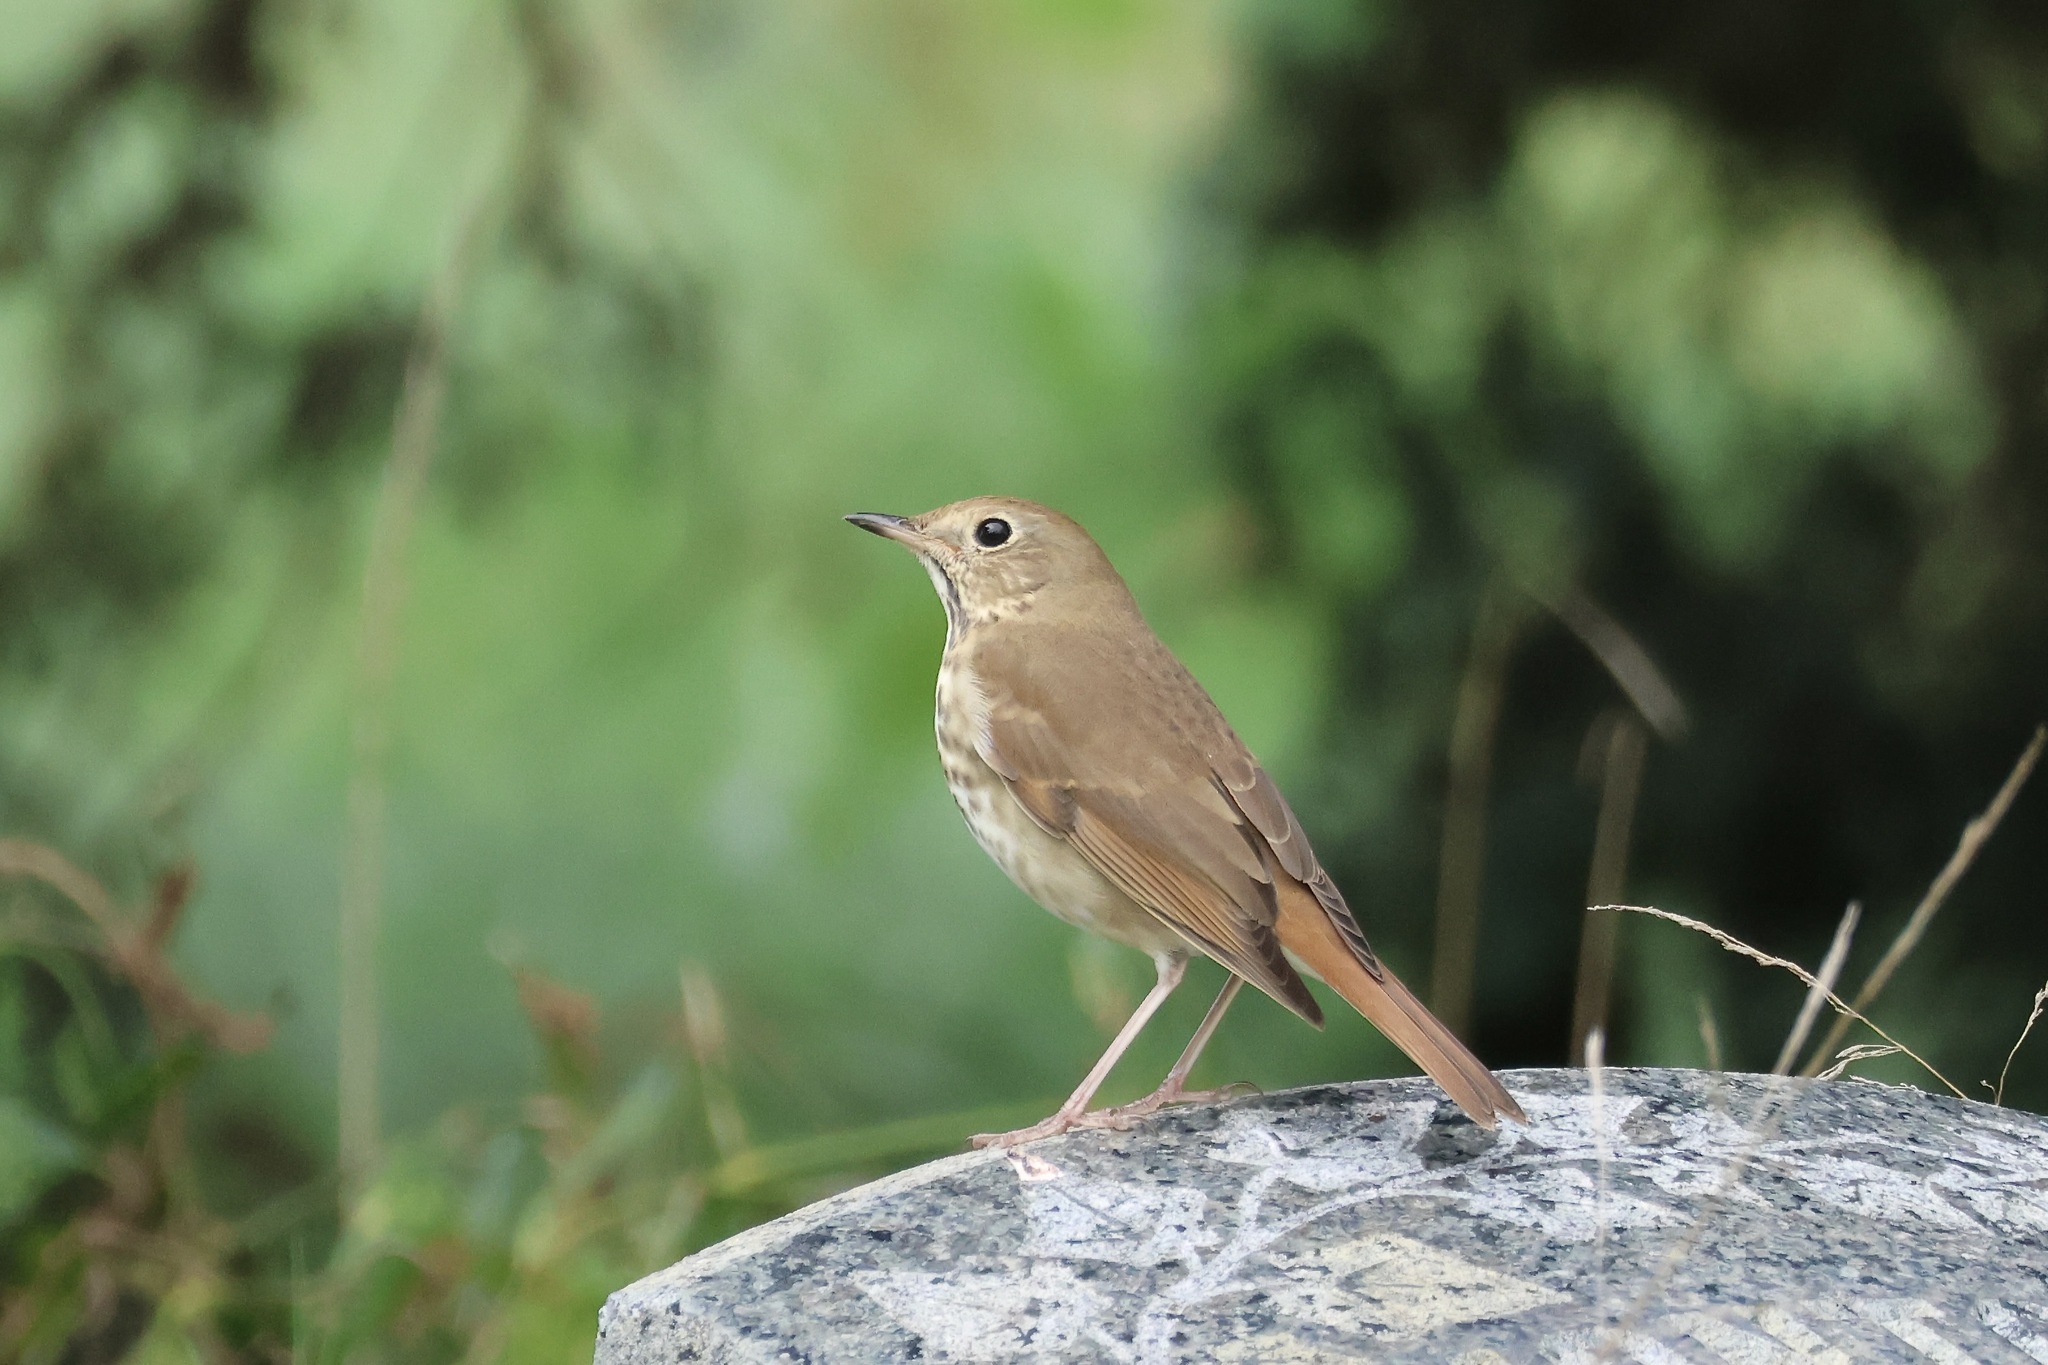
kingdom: Animalia
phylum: Chordata
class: Aves
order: Passeriformes
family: Turdidae
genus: Catharus
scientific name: Catharus guttatus
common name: Hermit thrush
